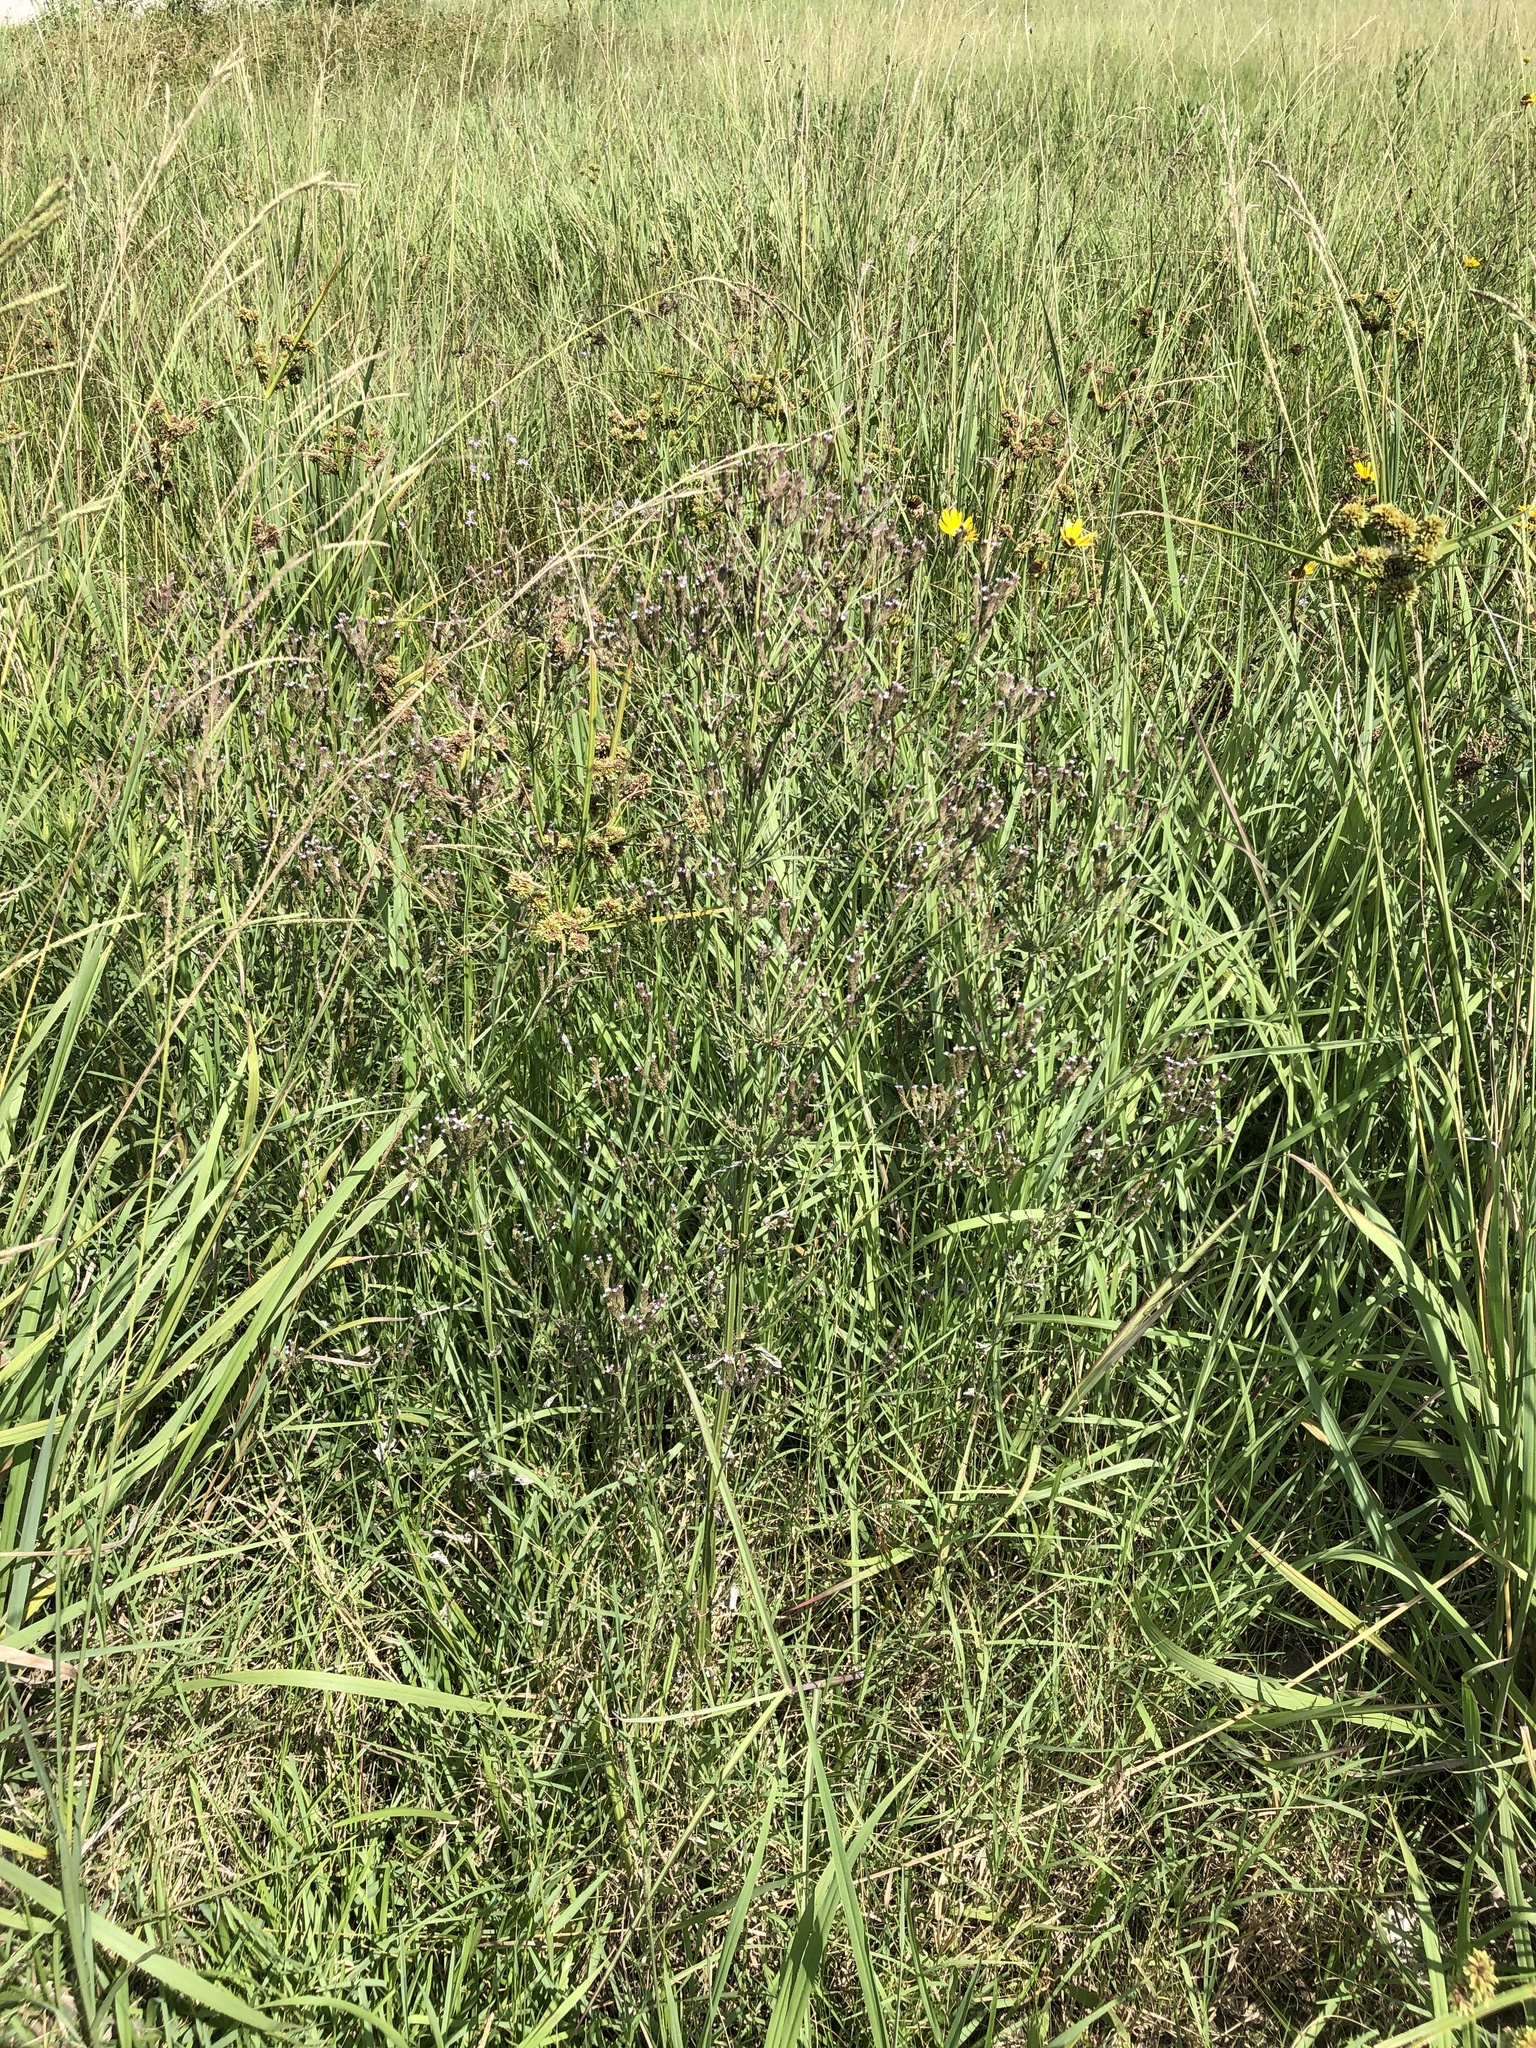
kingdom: Plantae
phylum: Tracheophyta
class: Magnoliopsida
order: Lamiales
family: Verbenaceae
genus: Verbena
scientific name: Verbena brasiliensis
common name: Brazilian vervain
